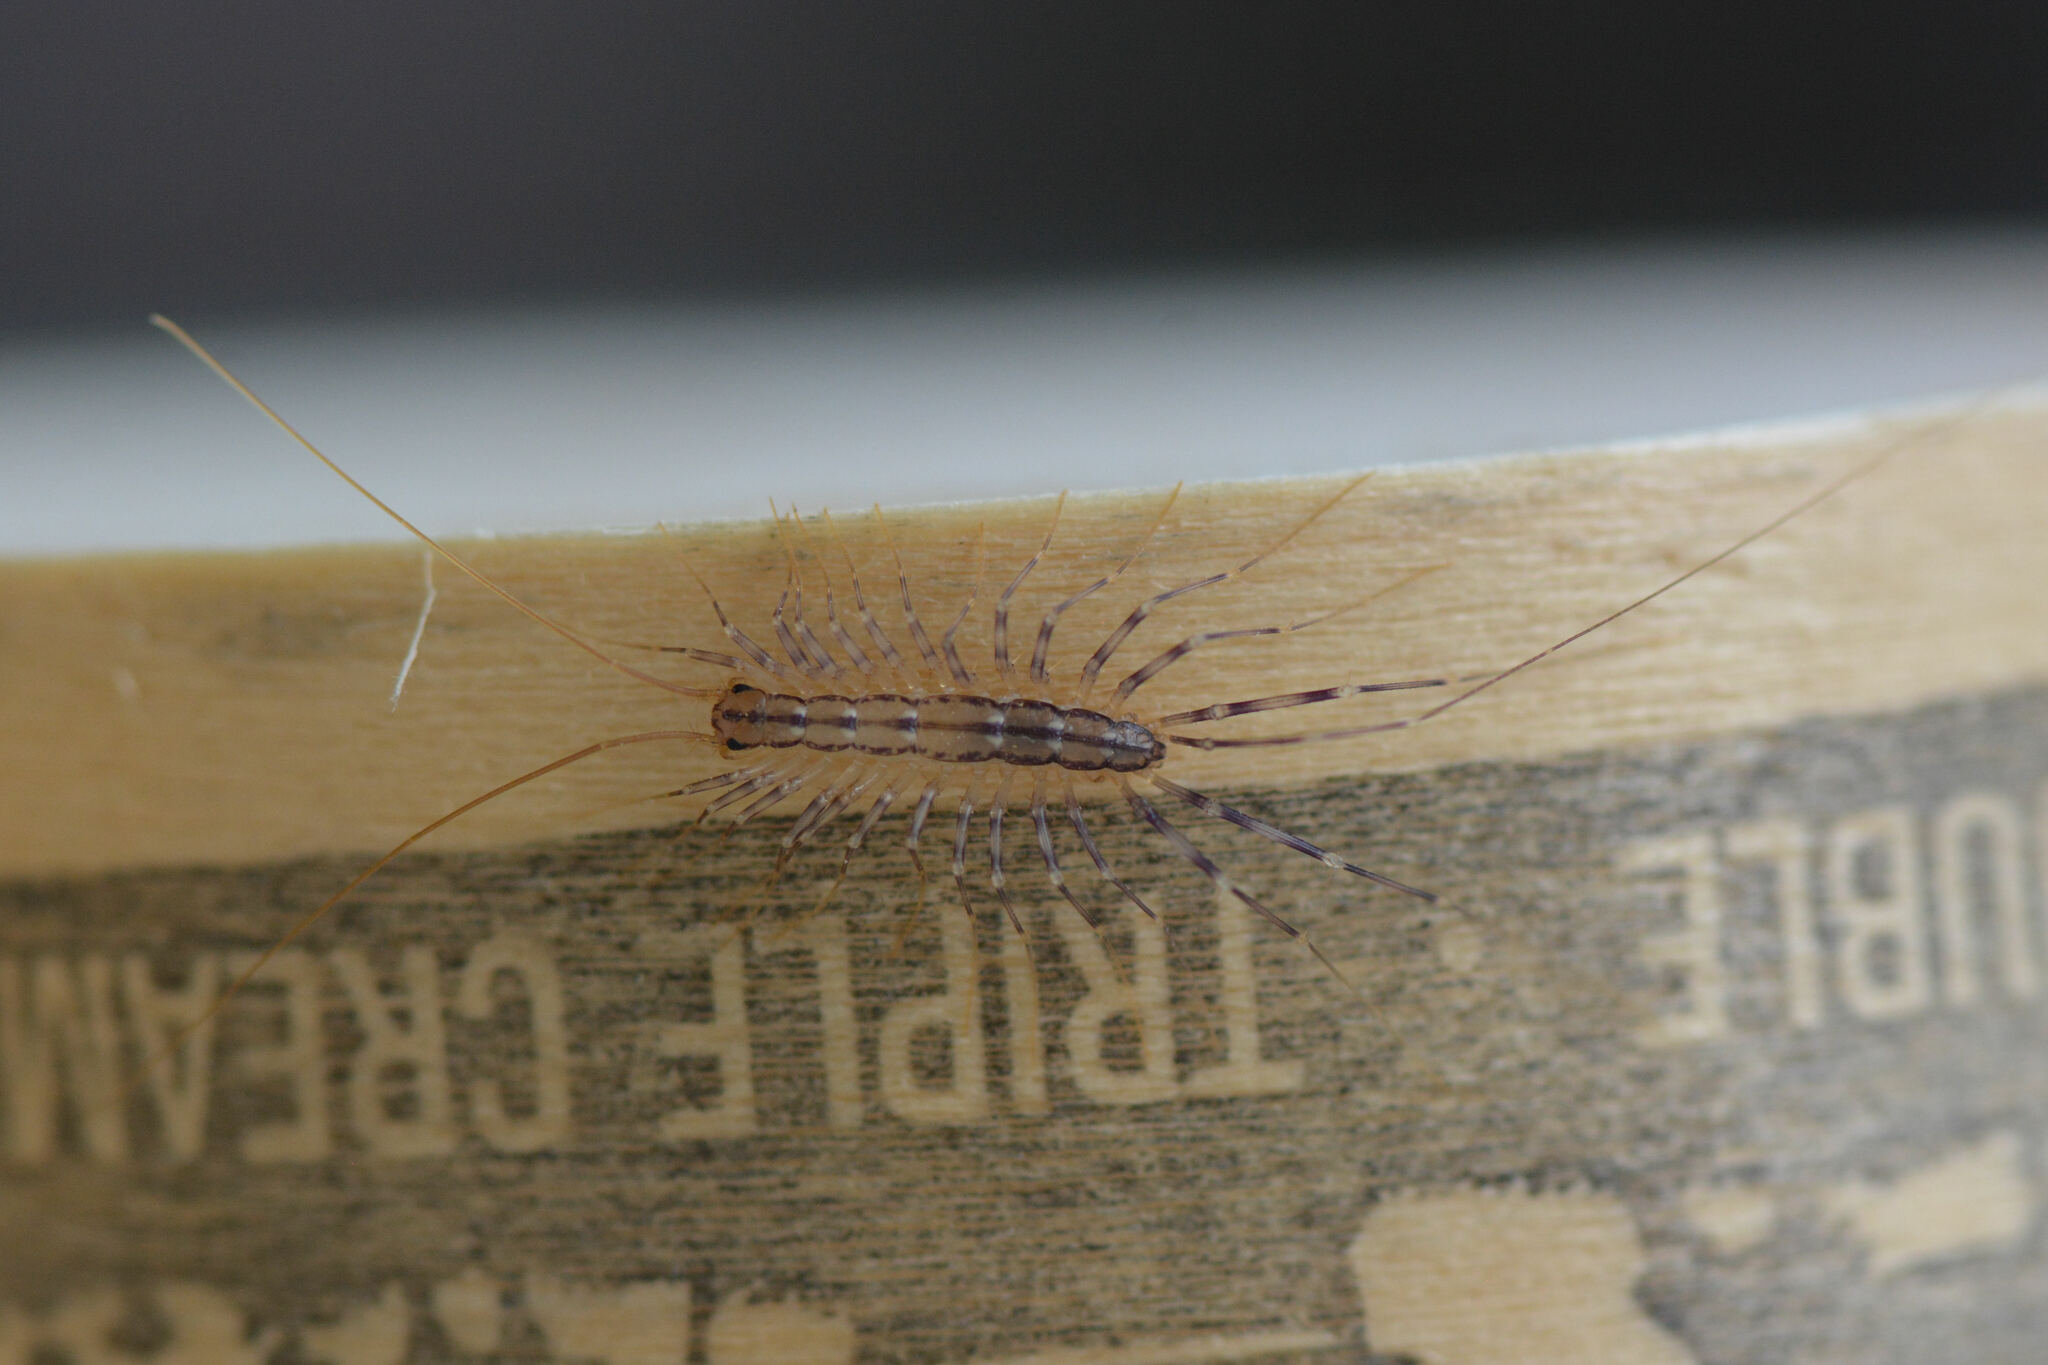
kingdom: Animalia
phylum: Arthropoda
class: Chilopoda
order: Scutigeromorpha
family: Scutigeridae
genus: Scutigera
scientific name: Scutigera coleoptrata
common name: House centipede
